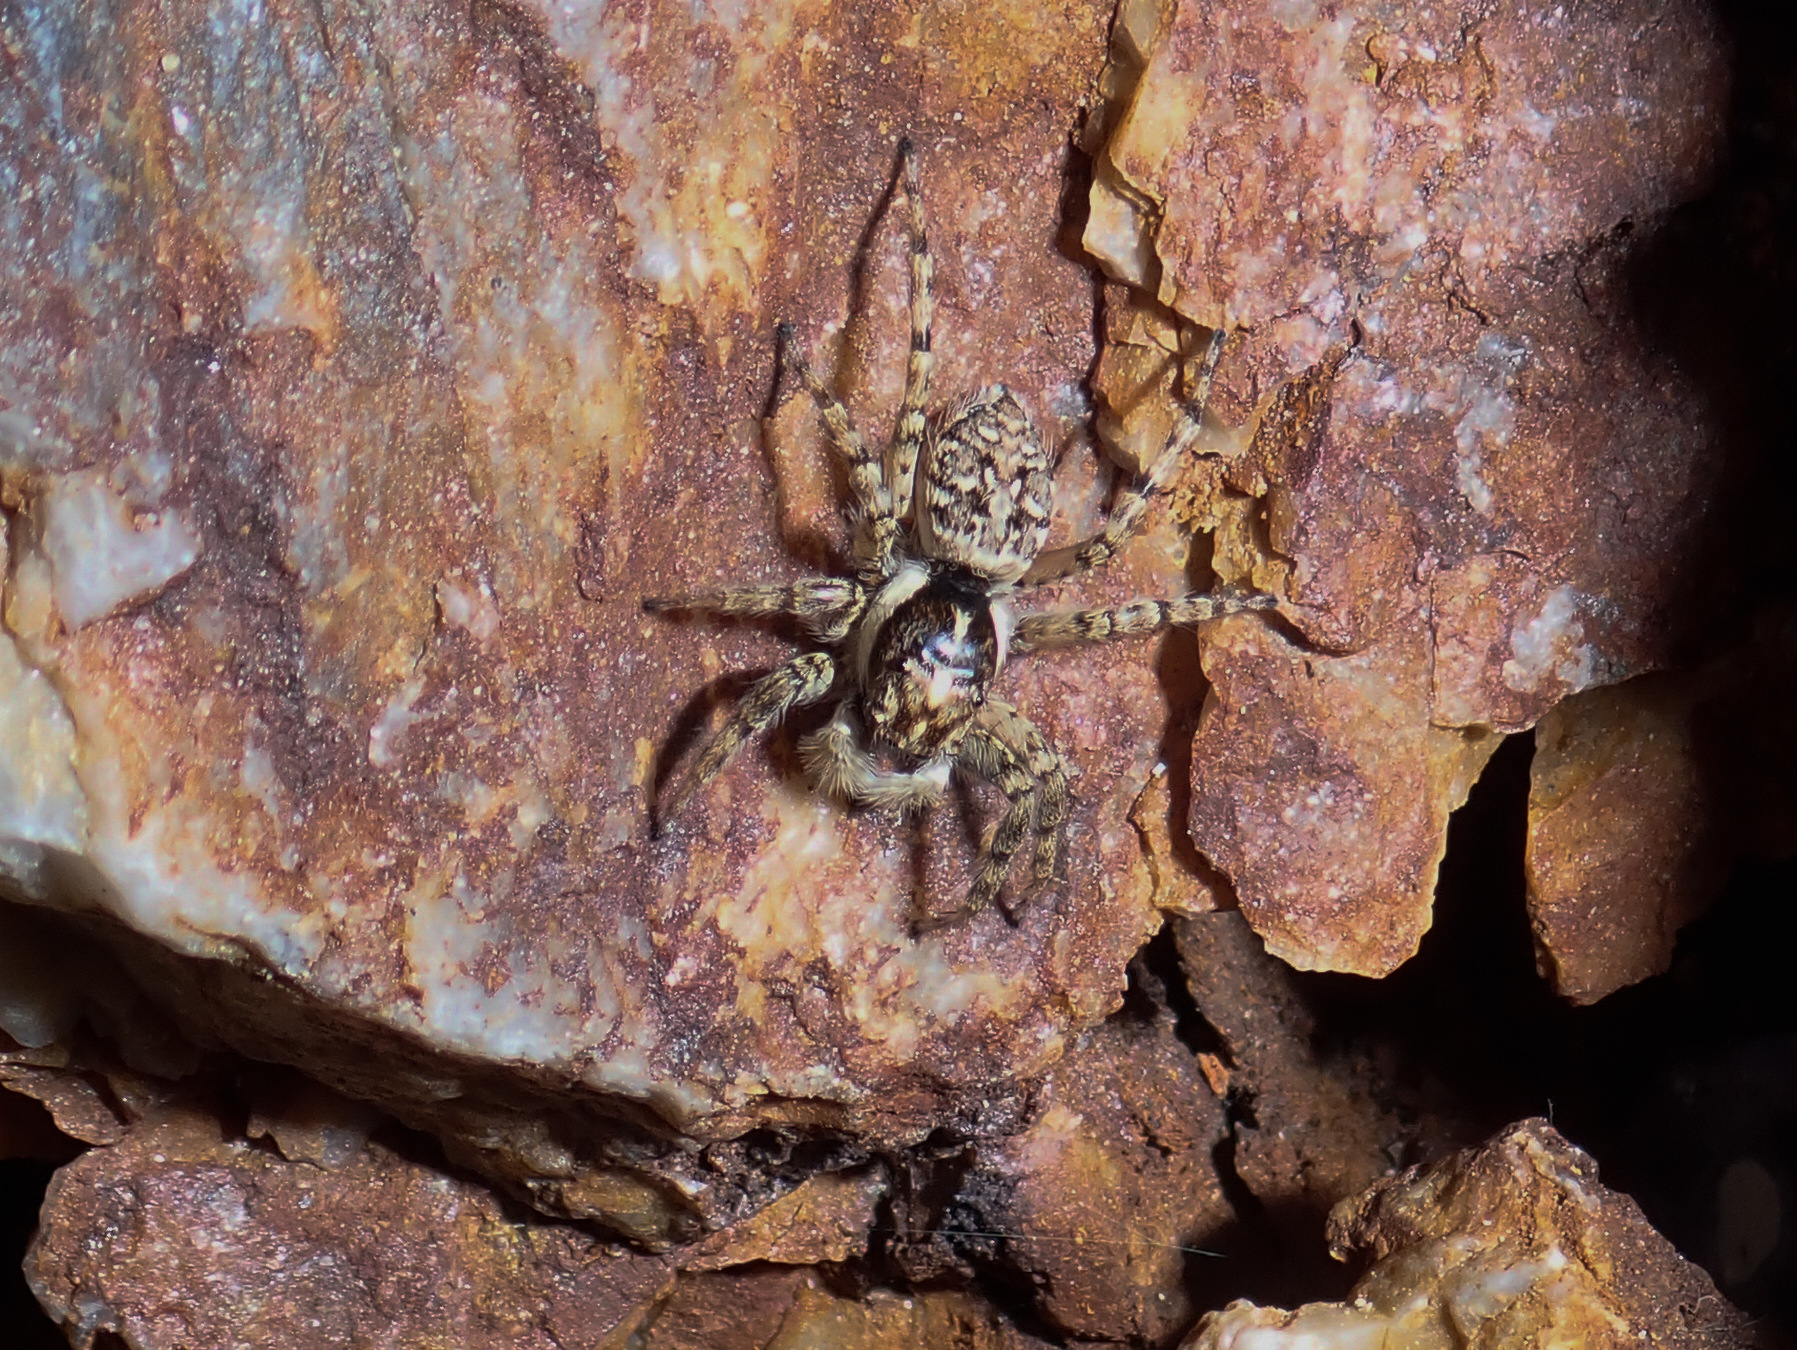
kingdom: Animalia
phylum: Arthropoda
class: Arachnida
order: Araneae
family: Salticidae
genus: Menemerus
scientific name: Menemerus semilimbatus
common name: Jumping spider
